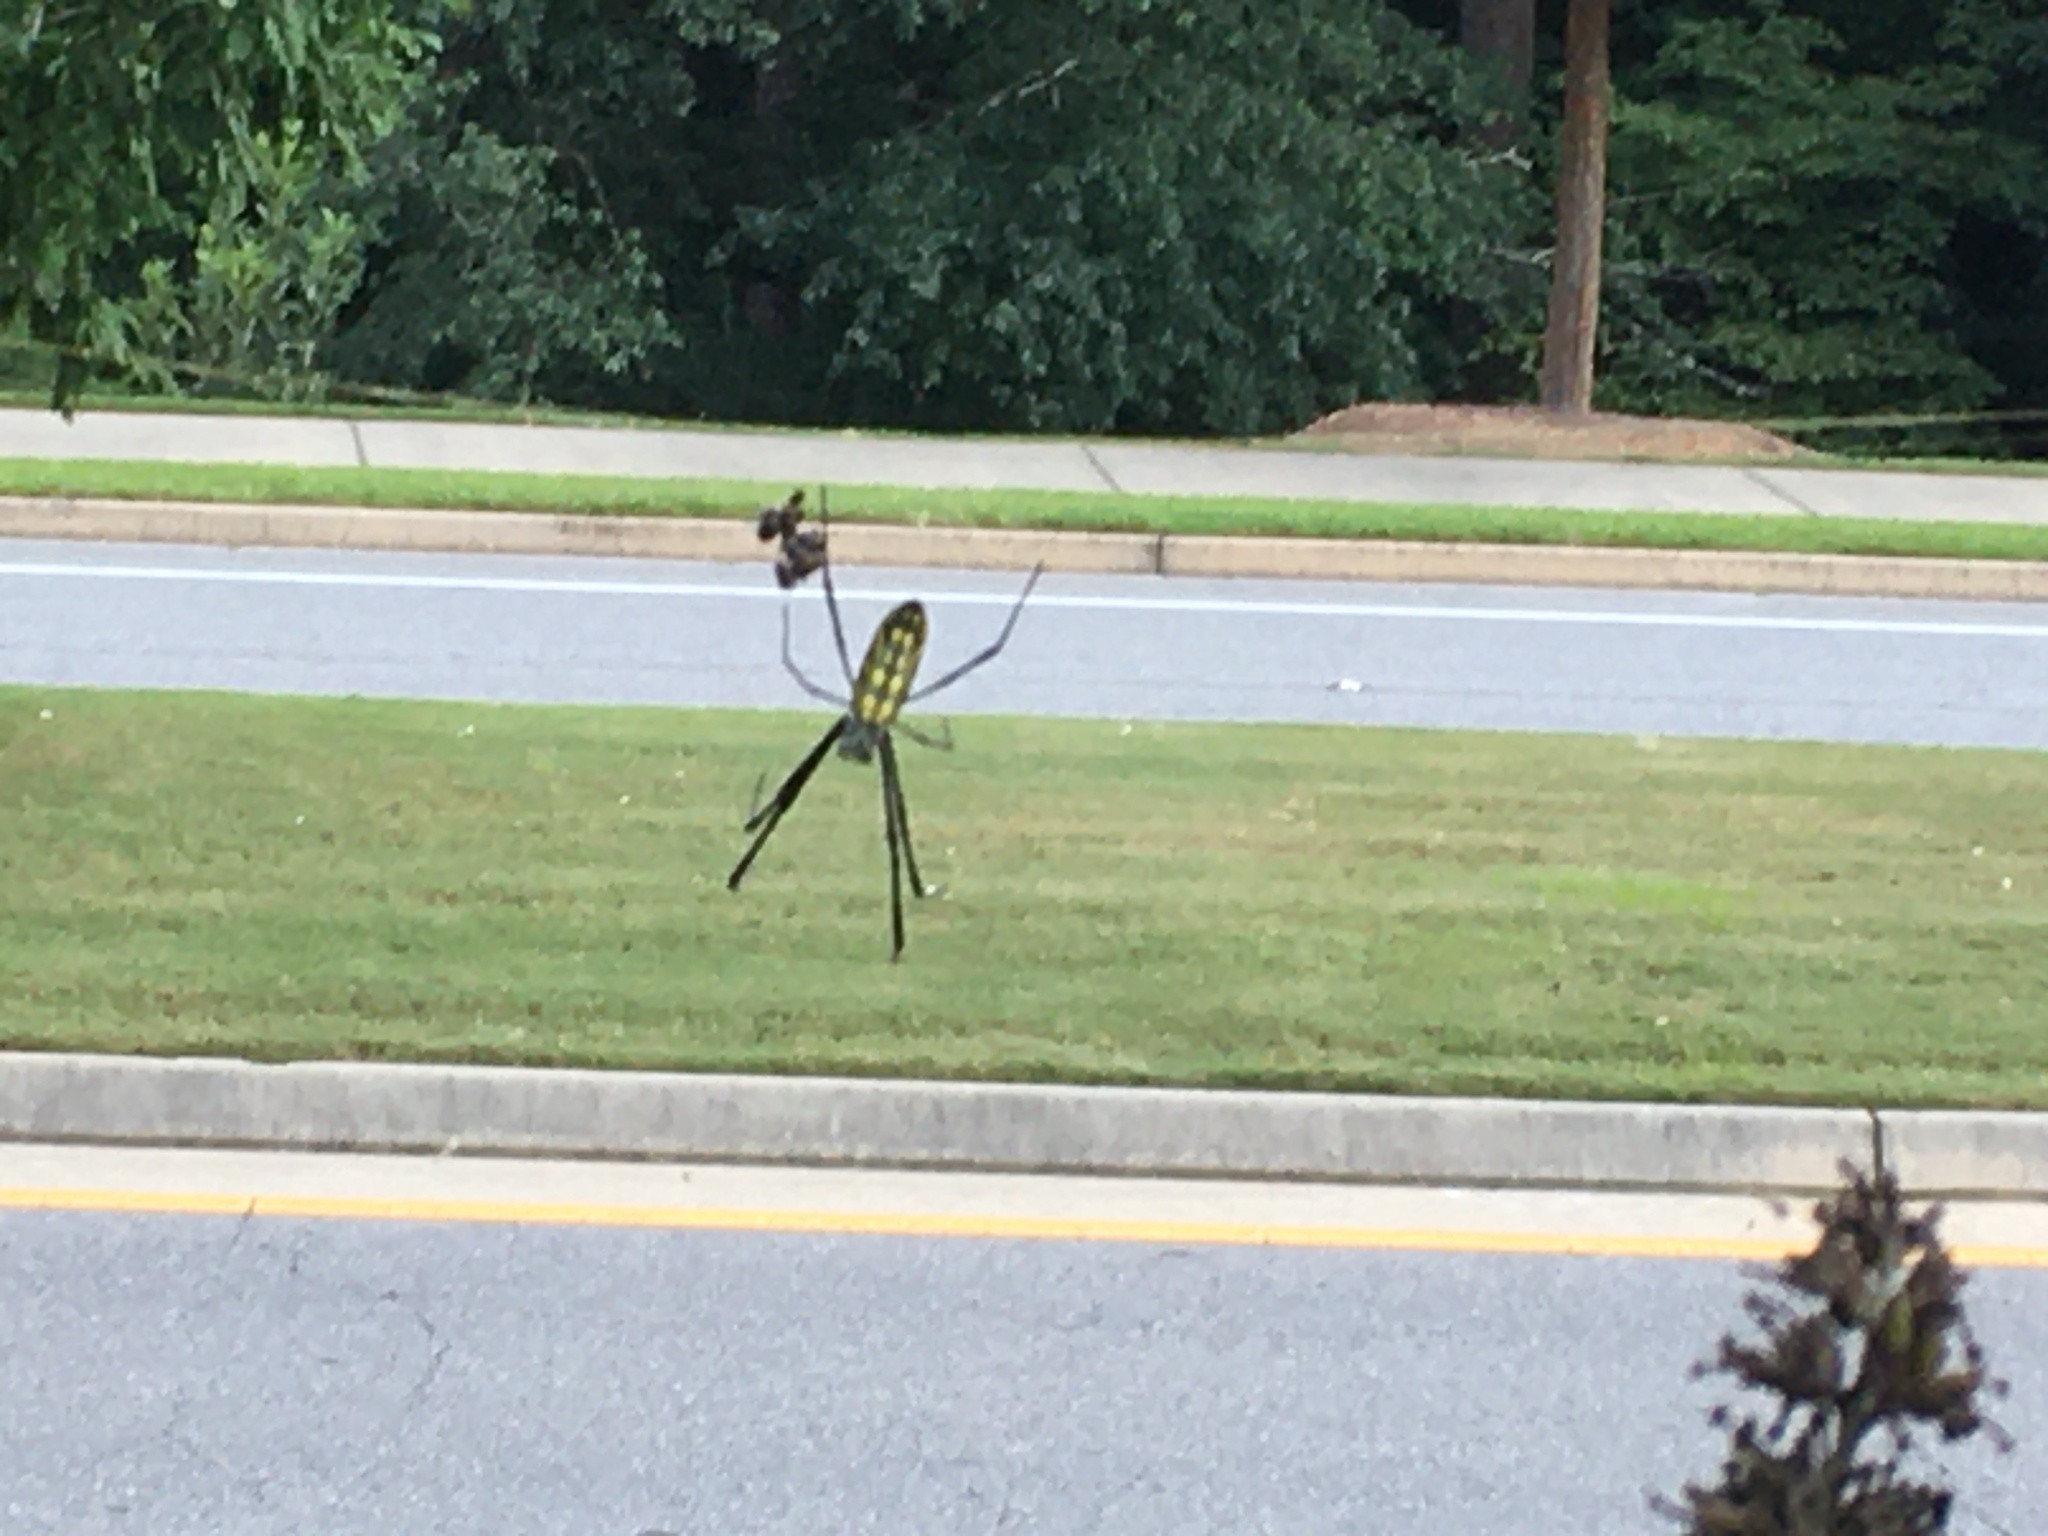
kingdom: Animalia
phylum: Arthropoda
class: Arachnida
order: Araneae
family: Araneidae
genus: Trichonephila
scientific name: Trichonephila clavata
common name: Jorō spider
